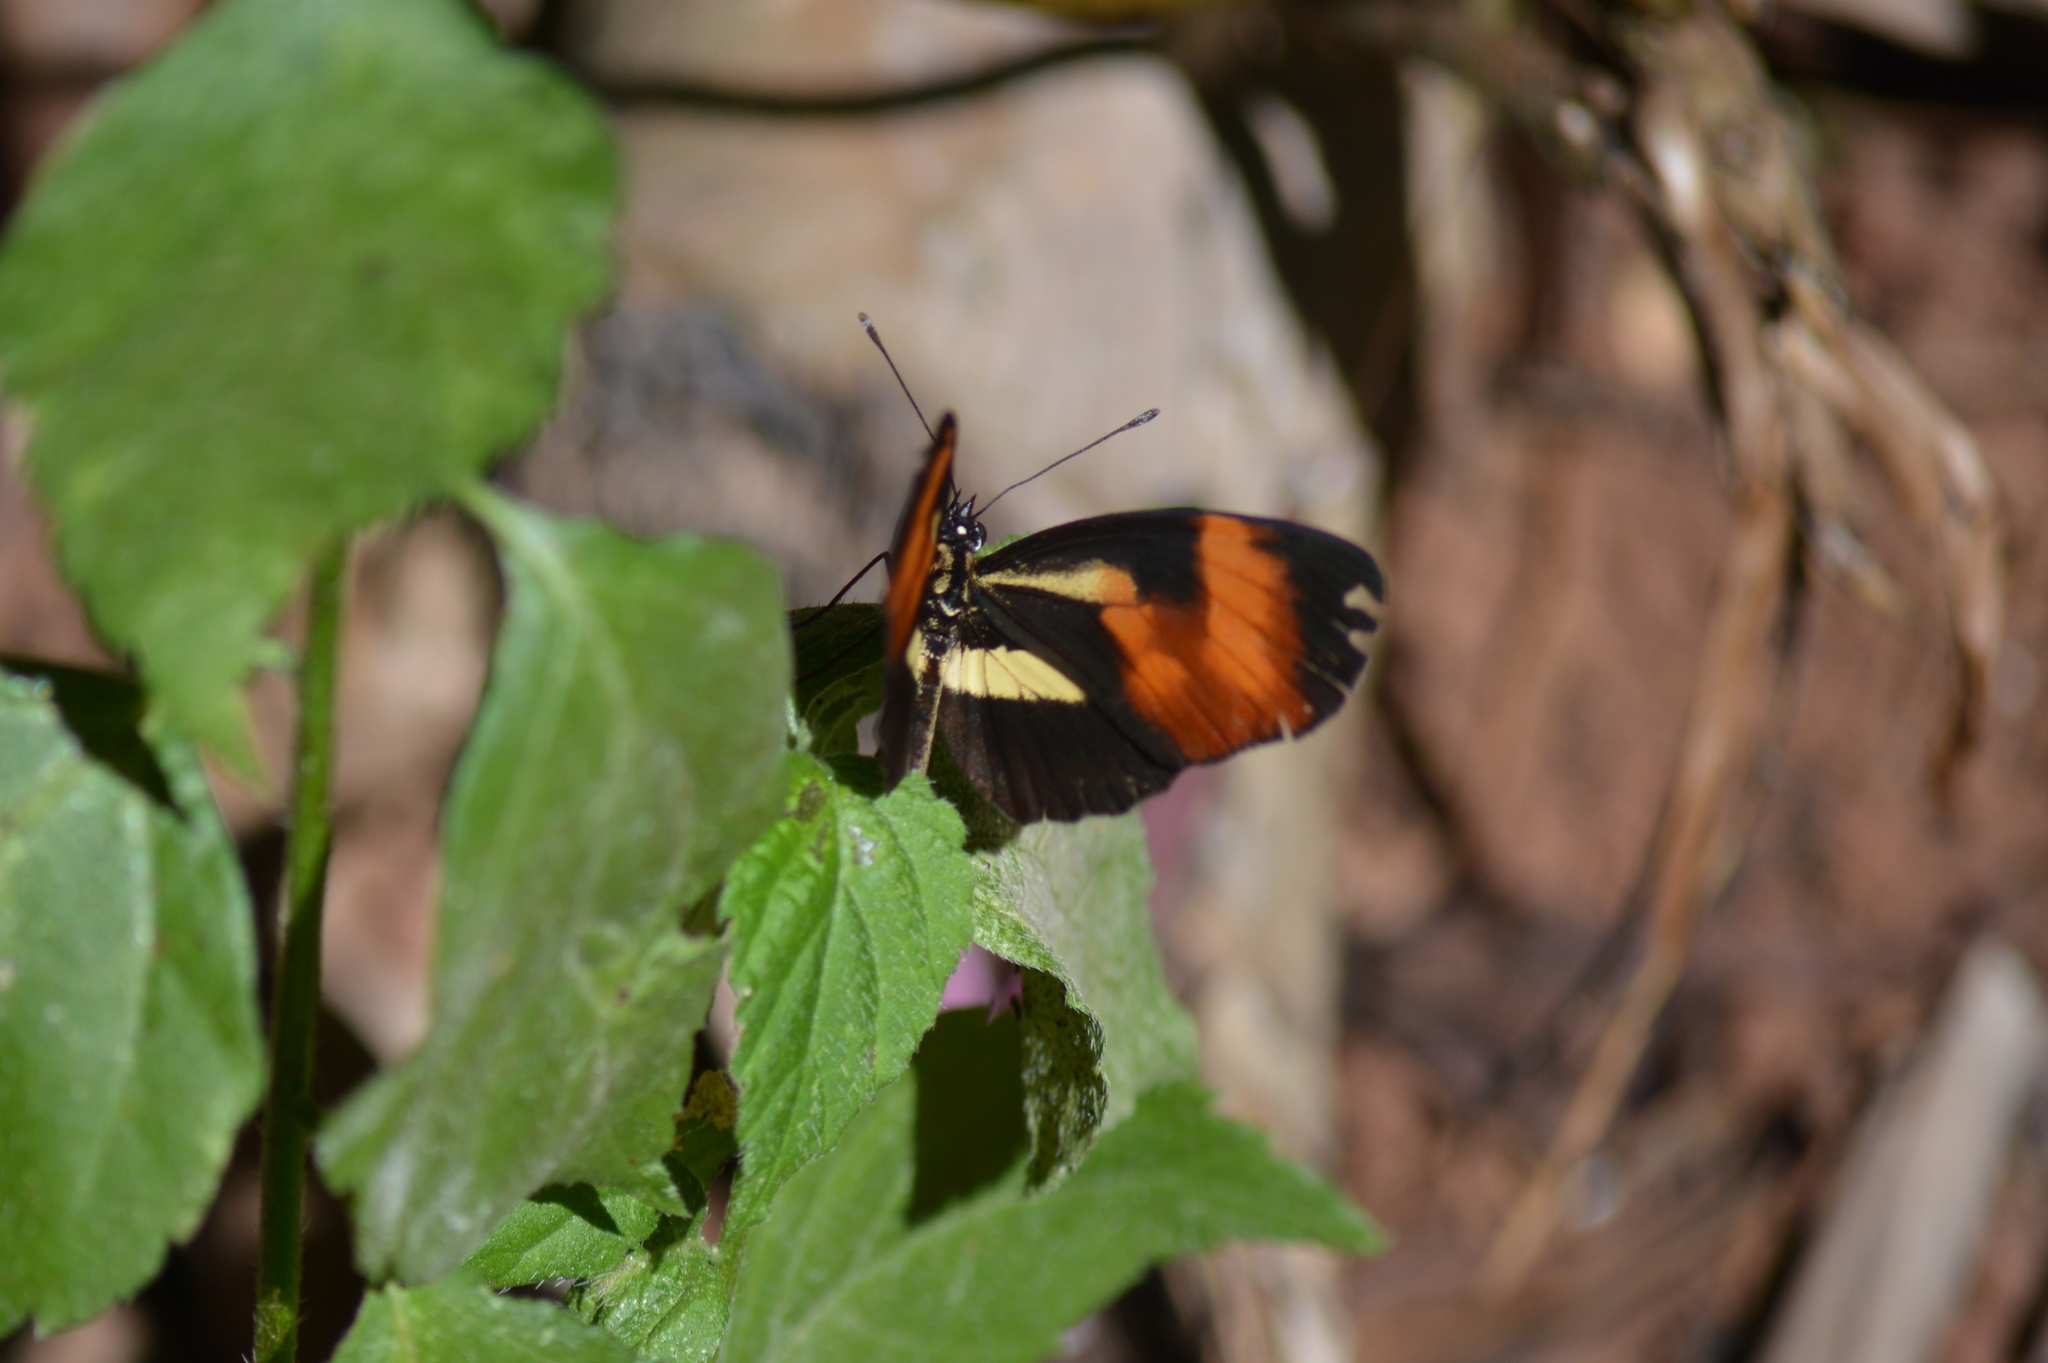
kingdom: Animalia
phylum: Arthropoda
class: Insecta
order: Lepidoptera
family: Nymphalidae
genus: Eresia
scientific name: Eresia lansdorfi
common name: Lansdorf's crescent
